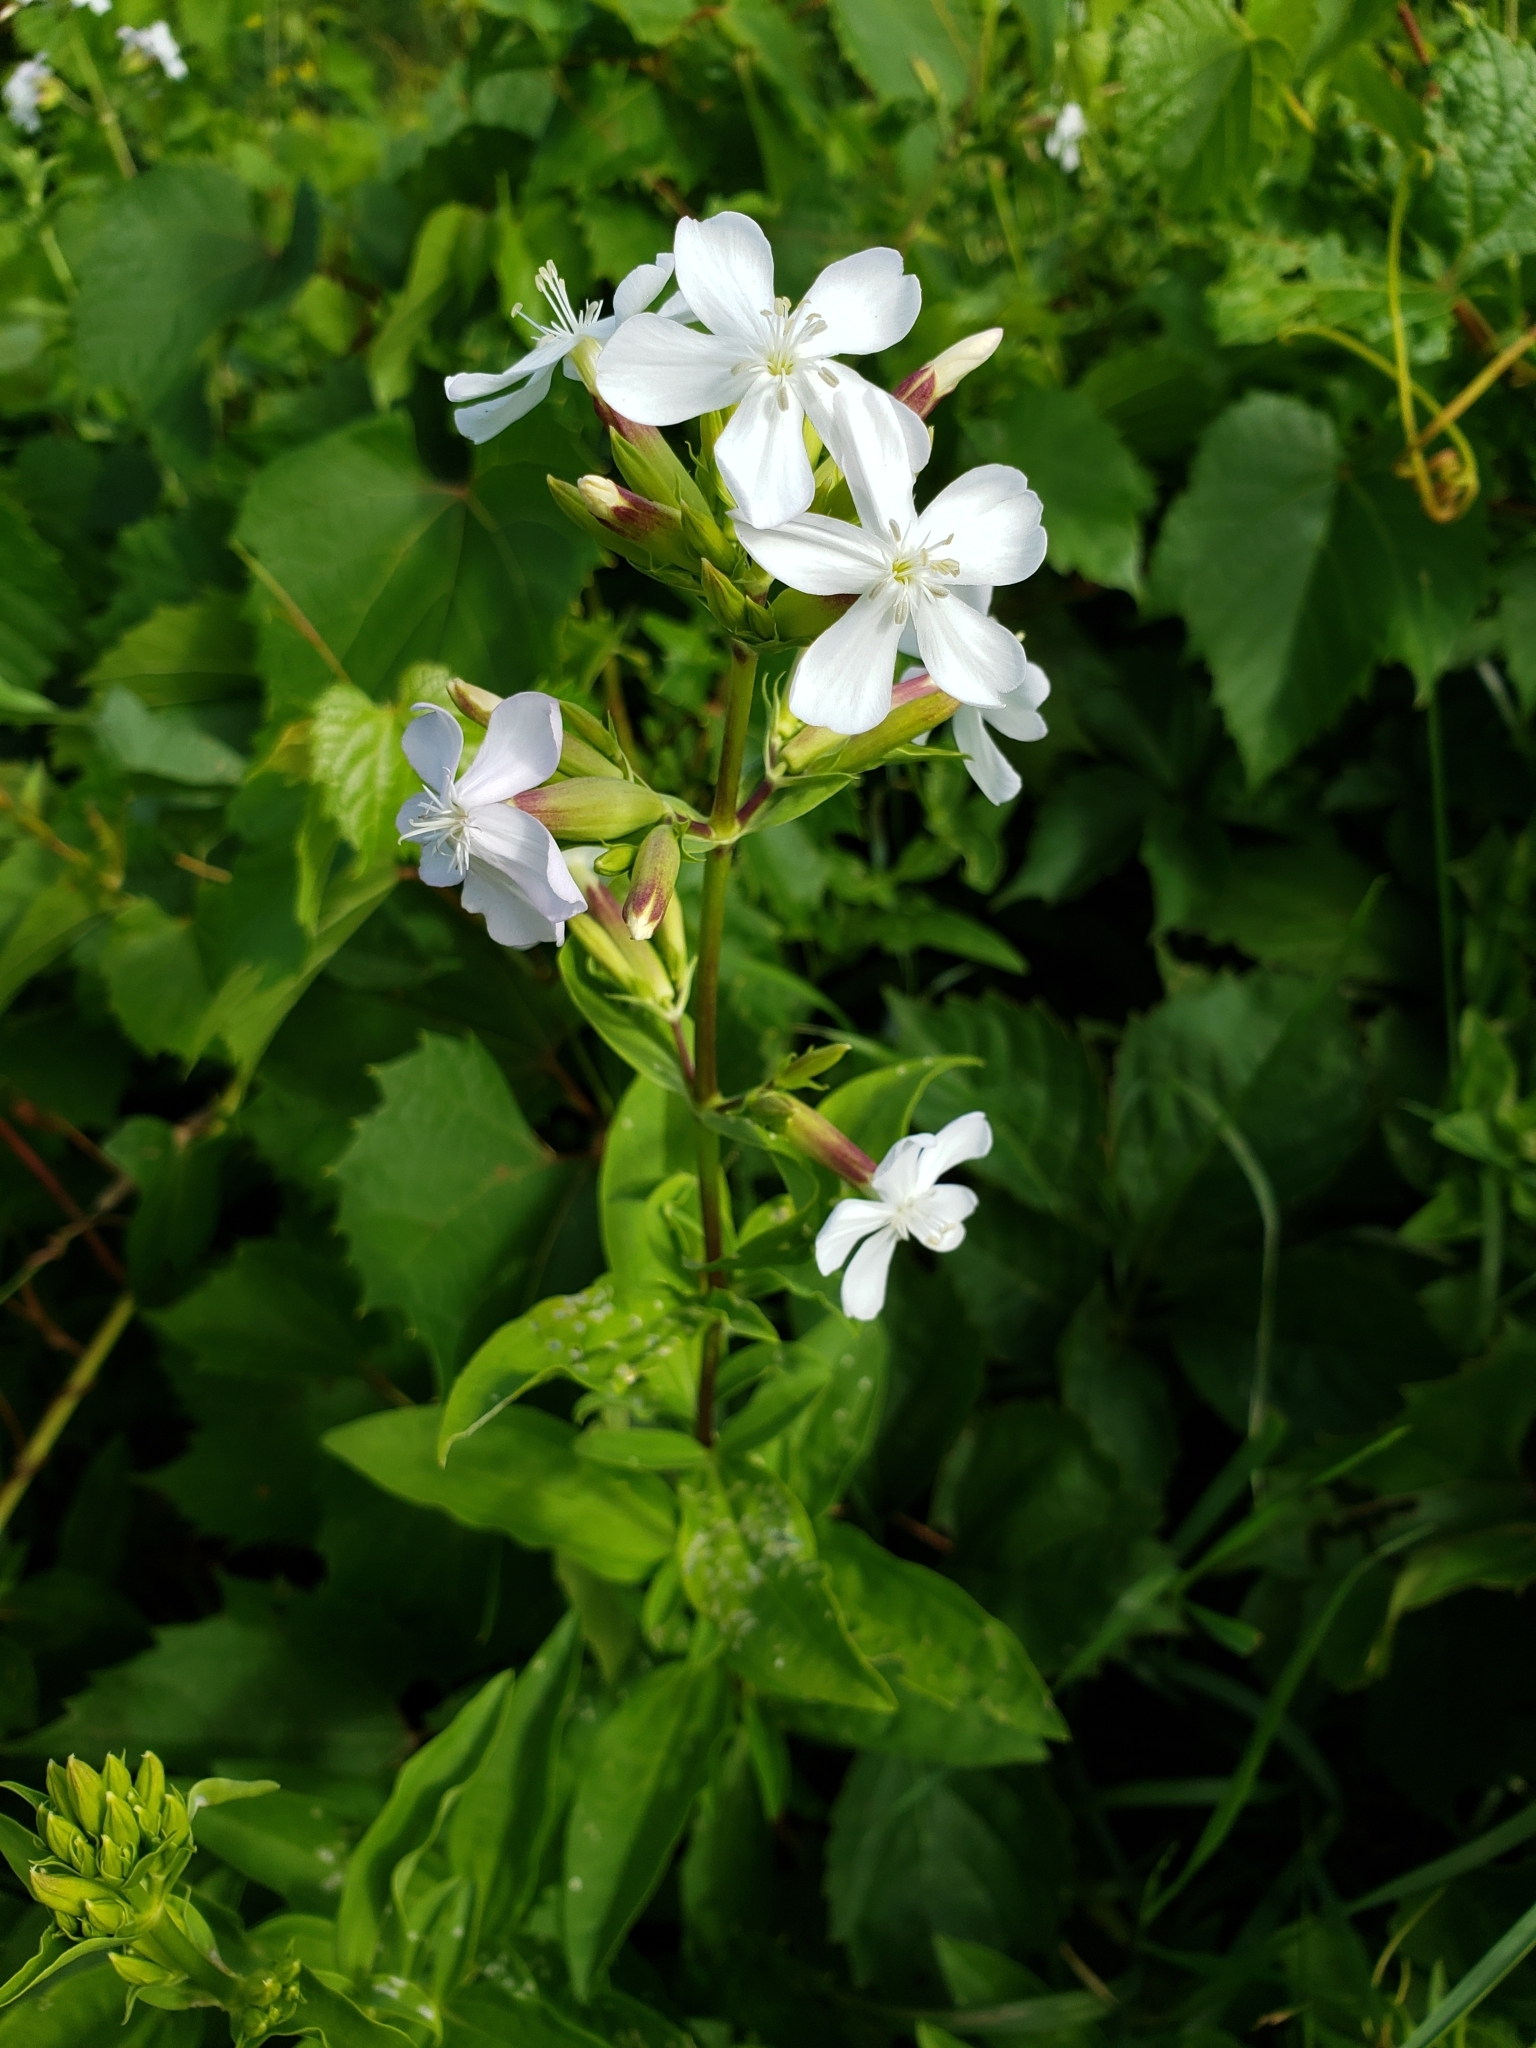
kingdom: Plantae
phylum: Tracheophyta
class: Magnoliopsida
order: Caryophyllales
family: Caryophyllaceae
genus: Saponaria
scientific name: Saponaria officinalis
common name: Soapwort
